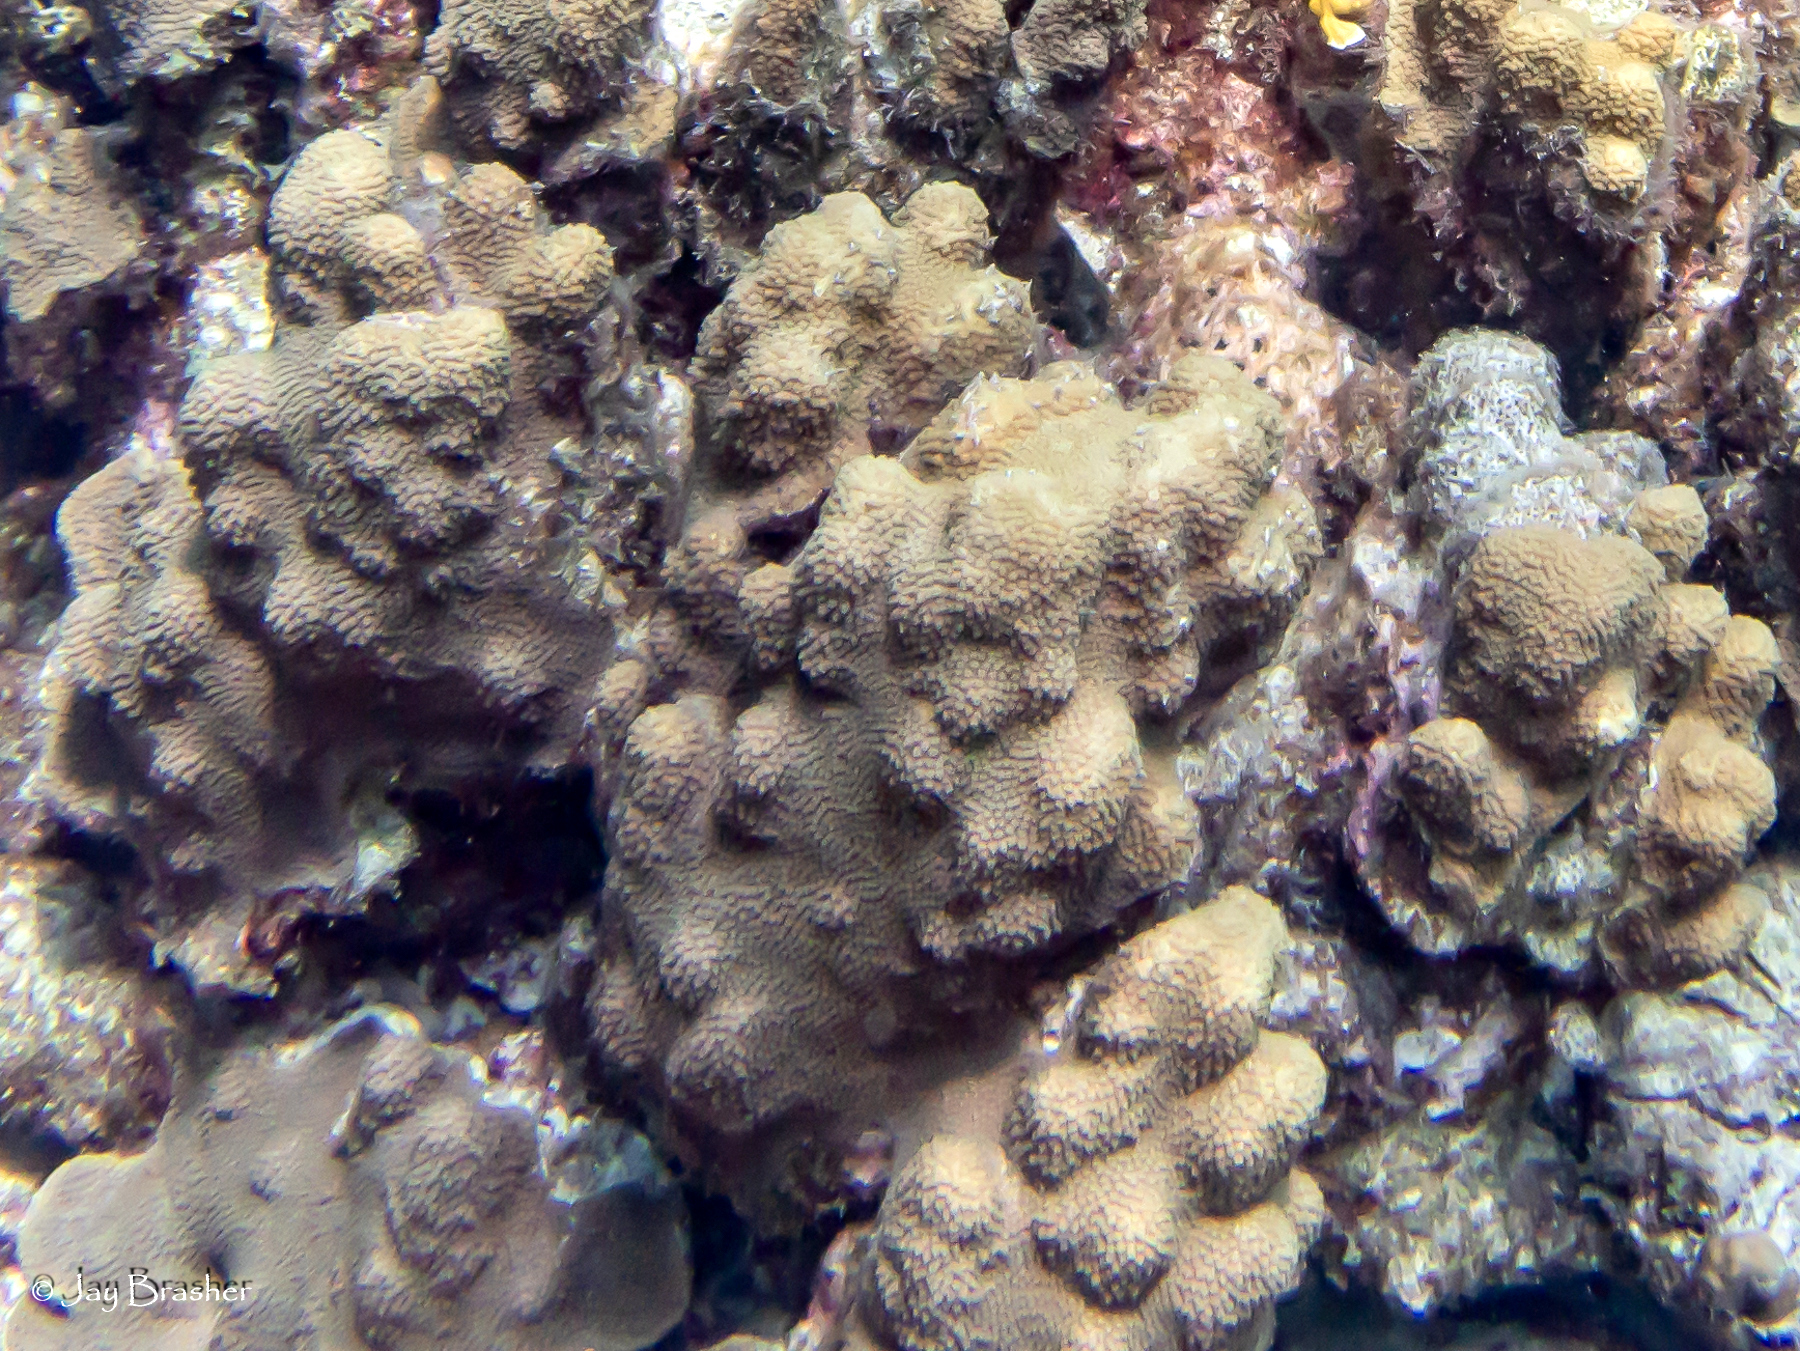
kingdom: Animalia
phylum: Cnidaria
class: Anthozoa
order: Scleractinia
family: Merulinidae
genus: Orbicella
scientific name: Orbicella faveolata
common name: Mountainous star coral
